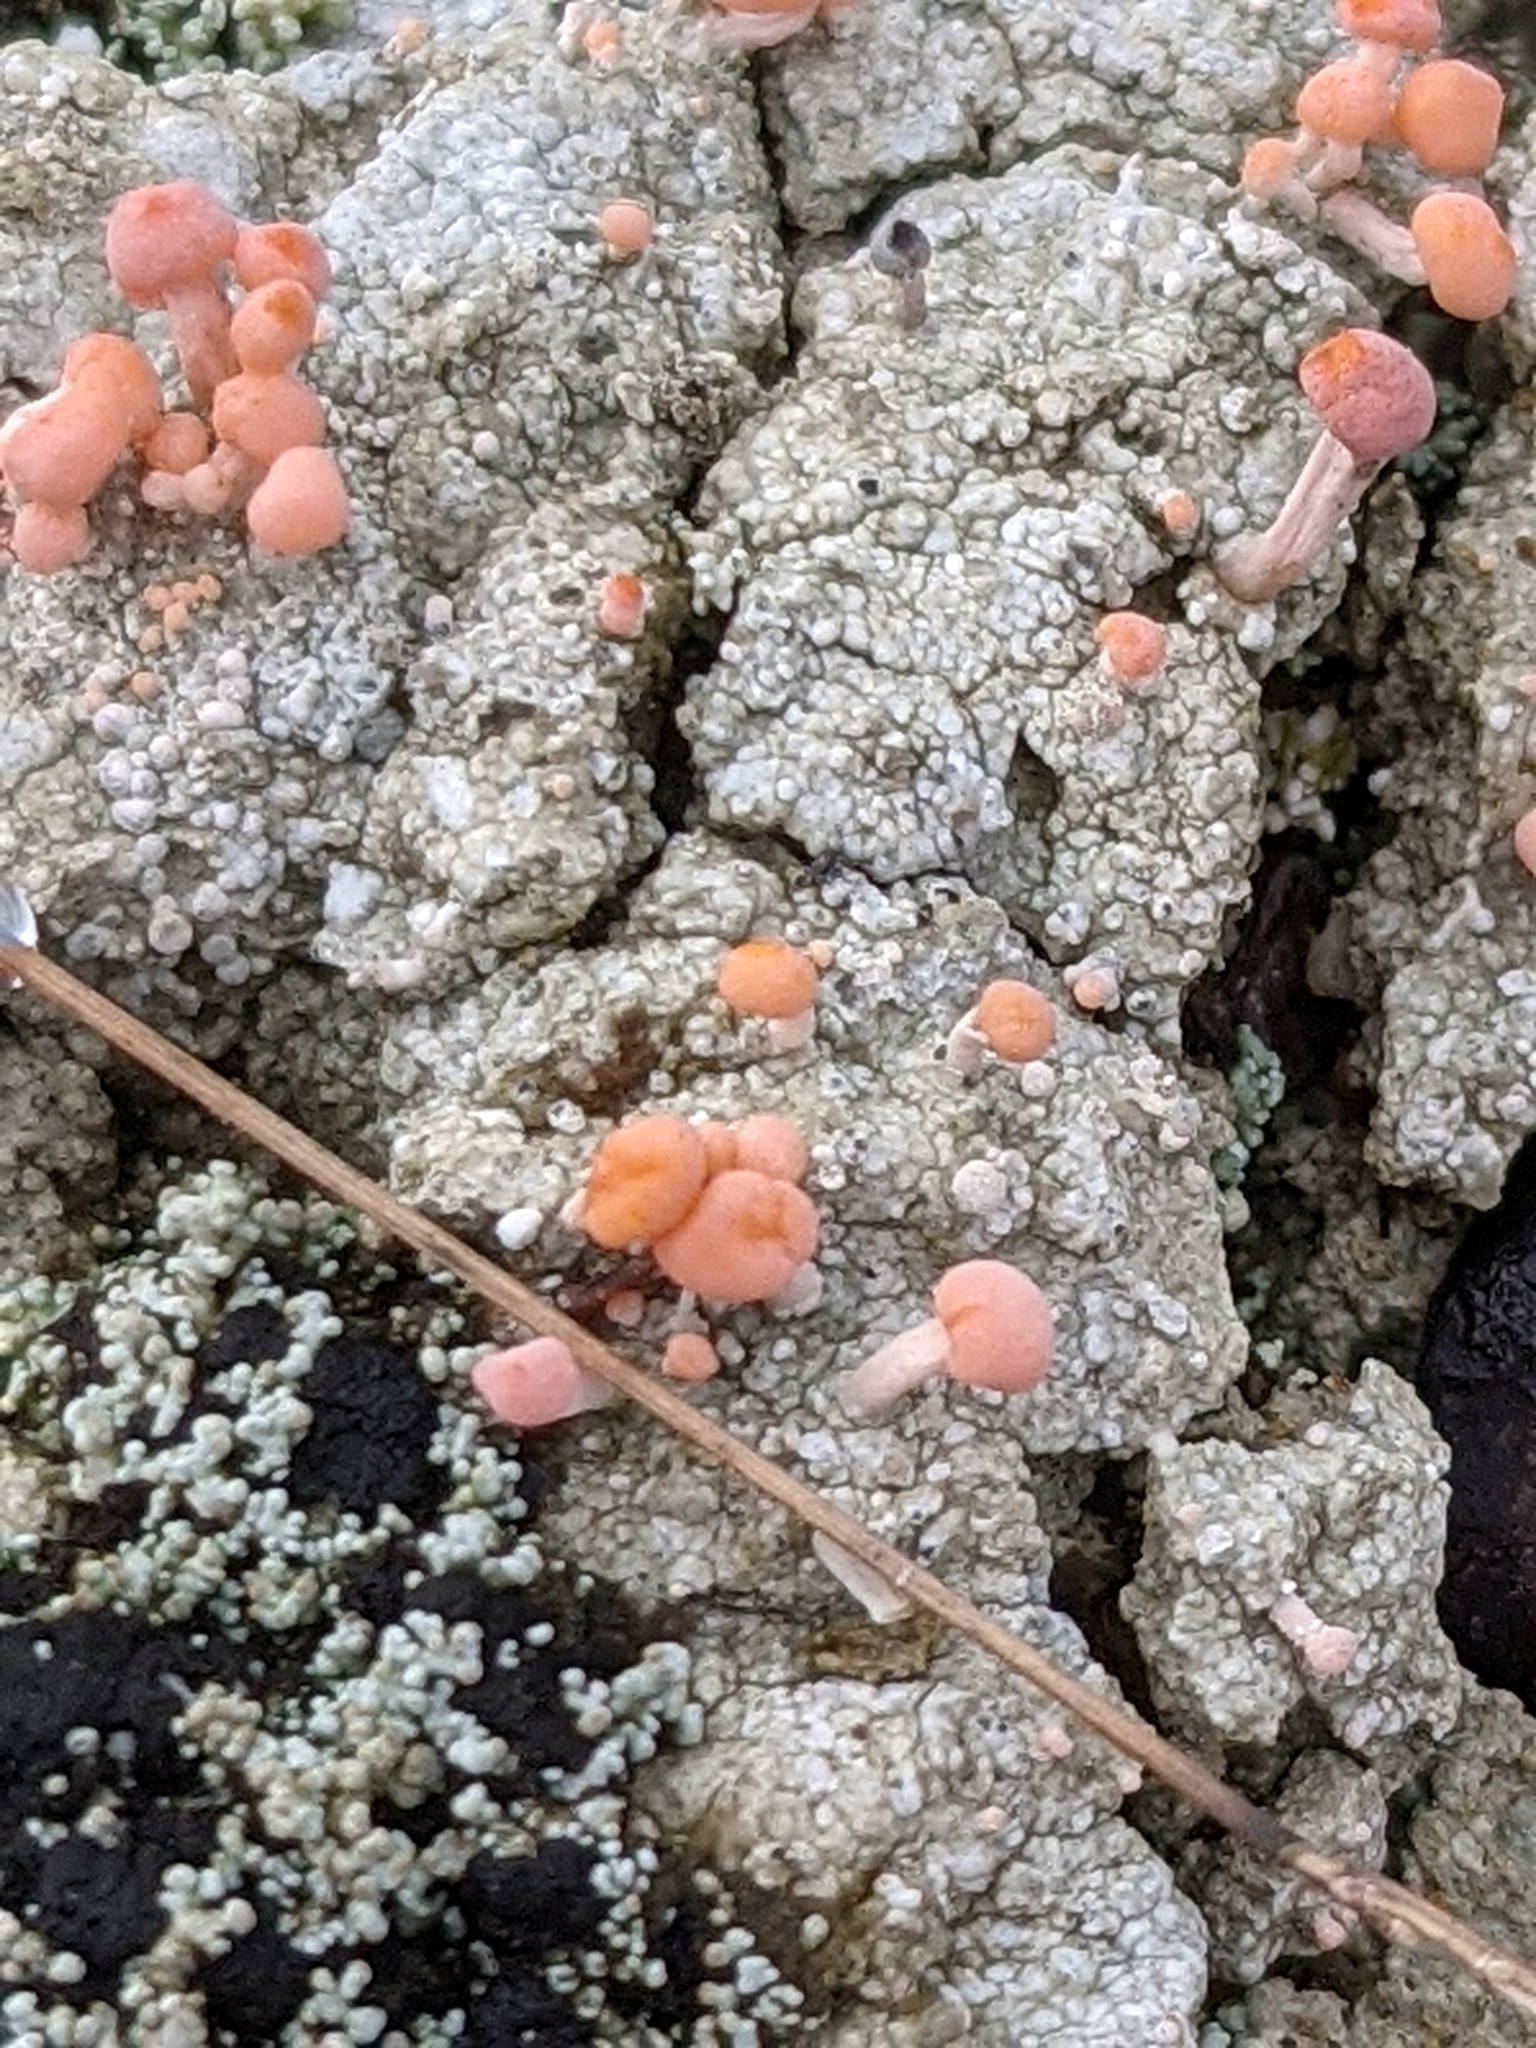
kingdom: Fungi
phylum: Ascomycota
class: Lecanoromycetes
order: Pertusariales
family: Icmadophilaceae
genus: Dibaeis
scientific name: Dibaeis baeomyces
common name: Pink earth lichen
